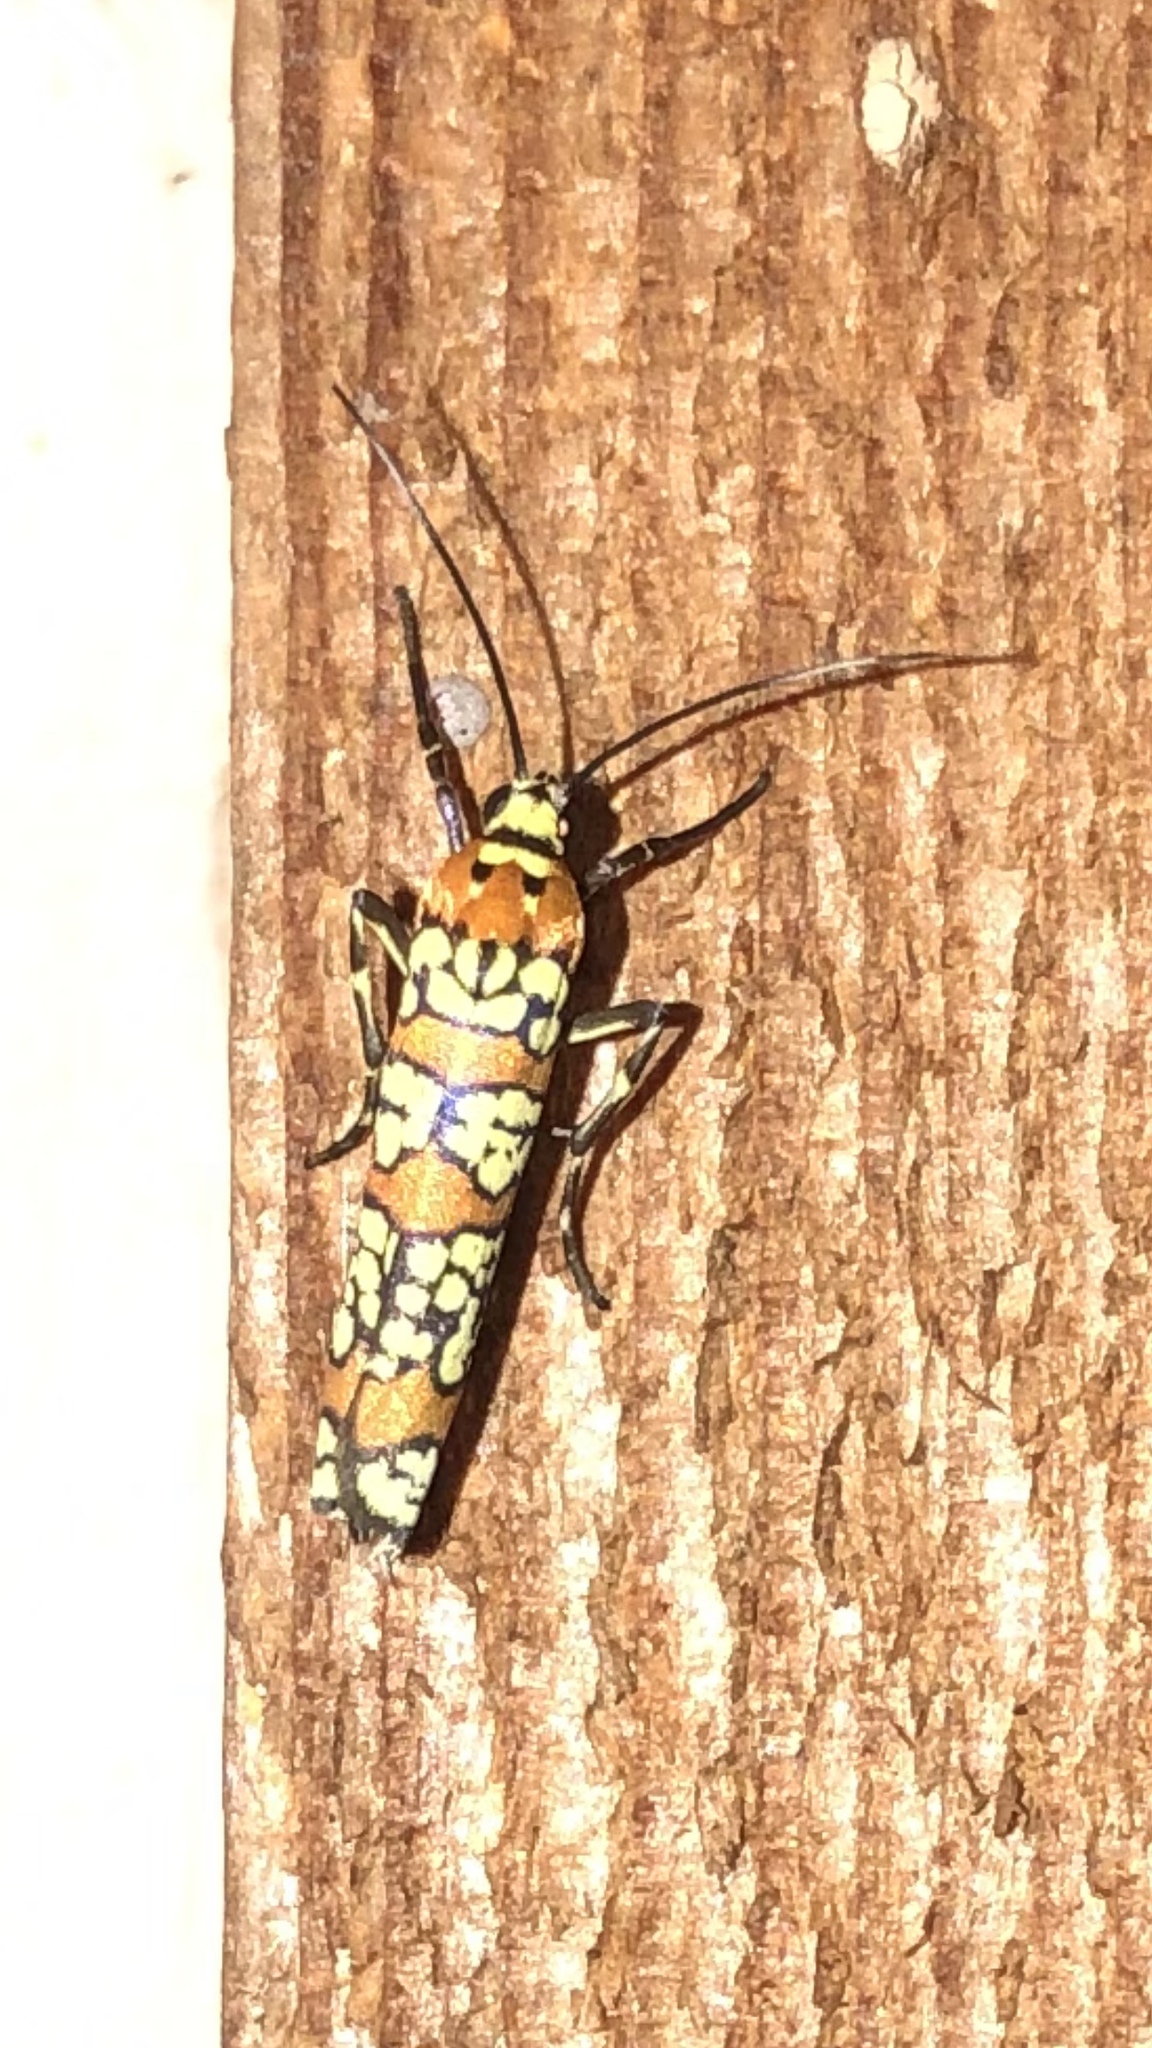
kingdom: Animalia
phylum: Arthropoda
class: Insecta
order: Lepidoptera
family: Attevidae
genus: Atteva
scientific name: Atteva punctella
